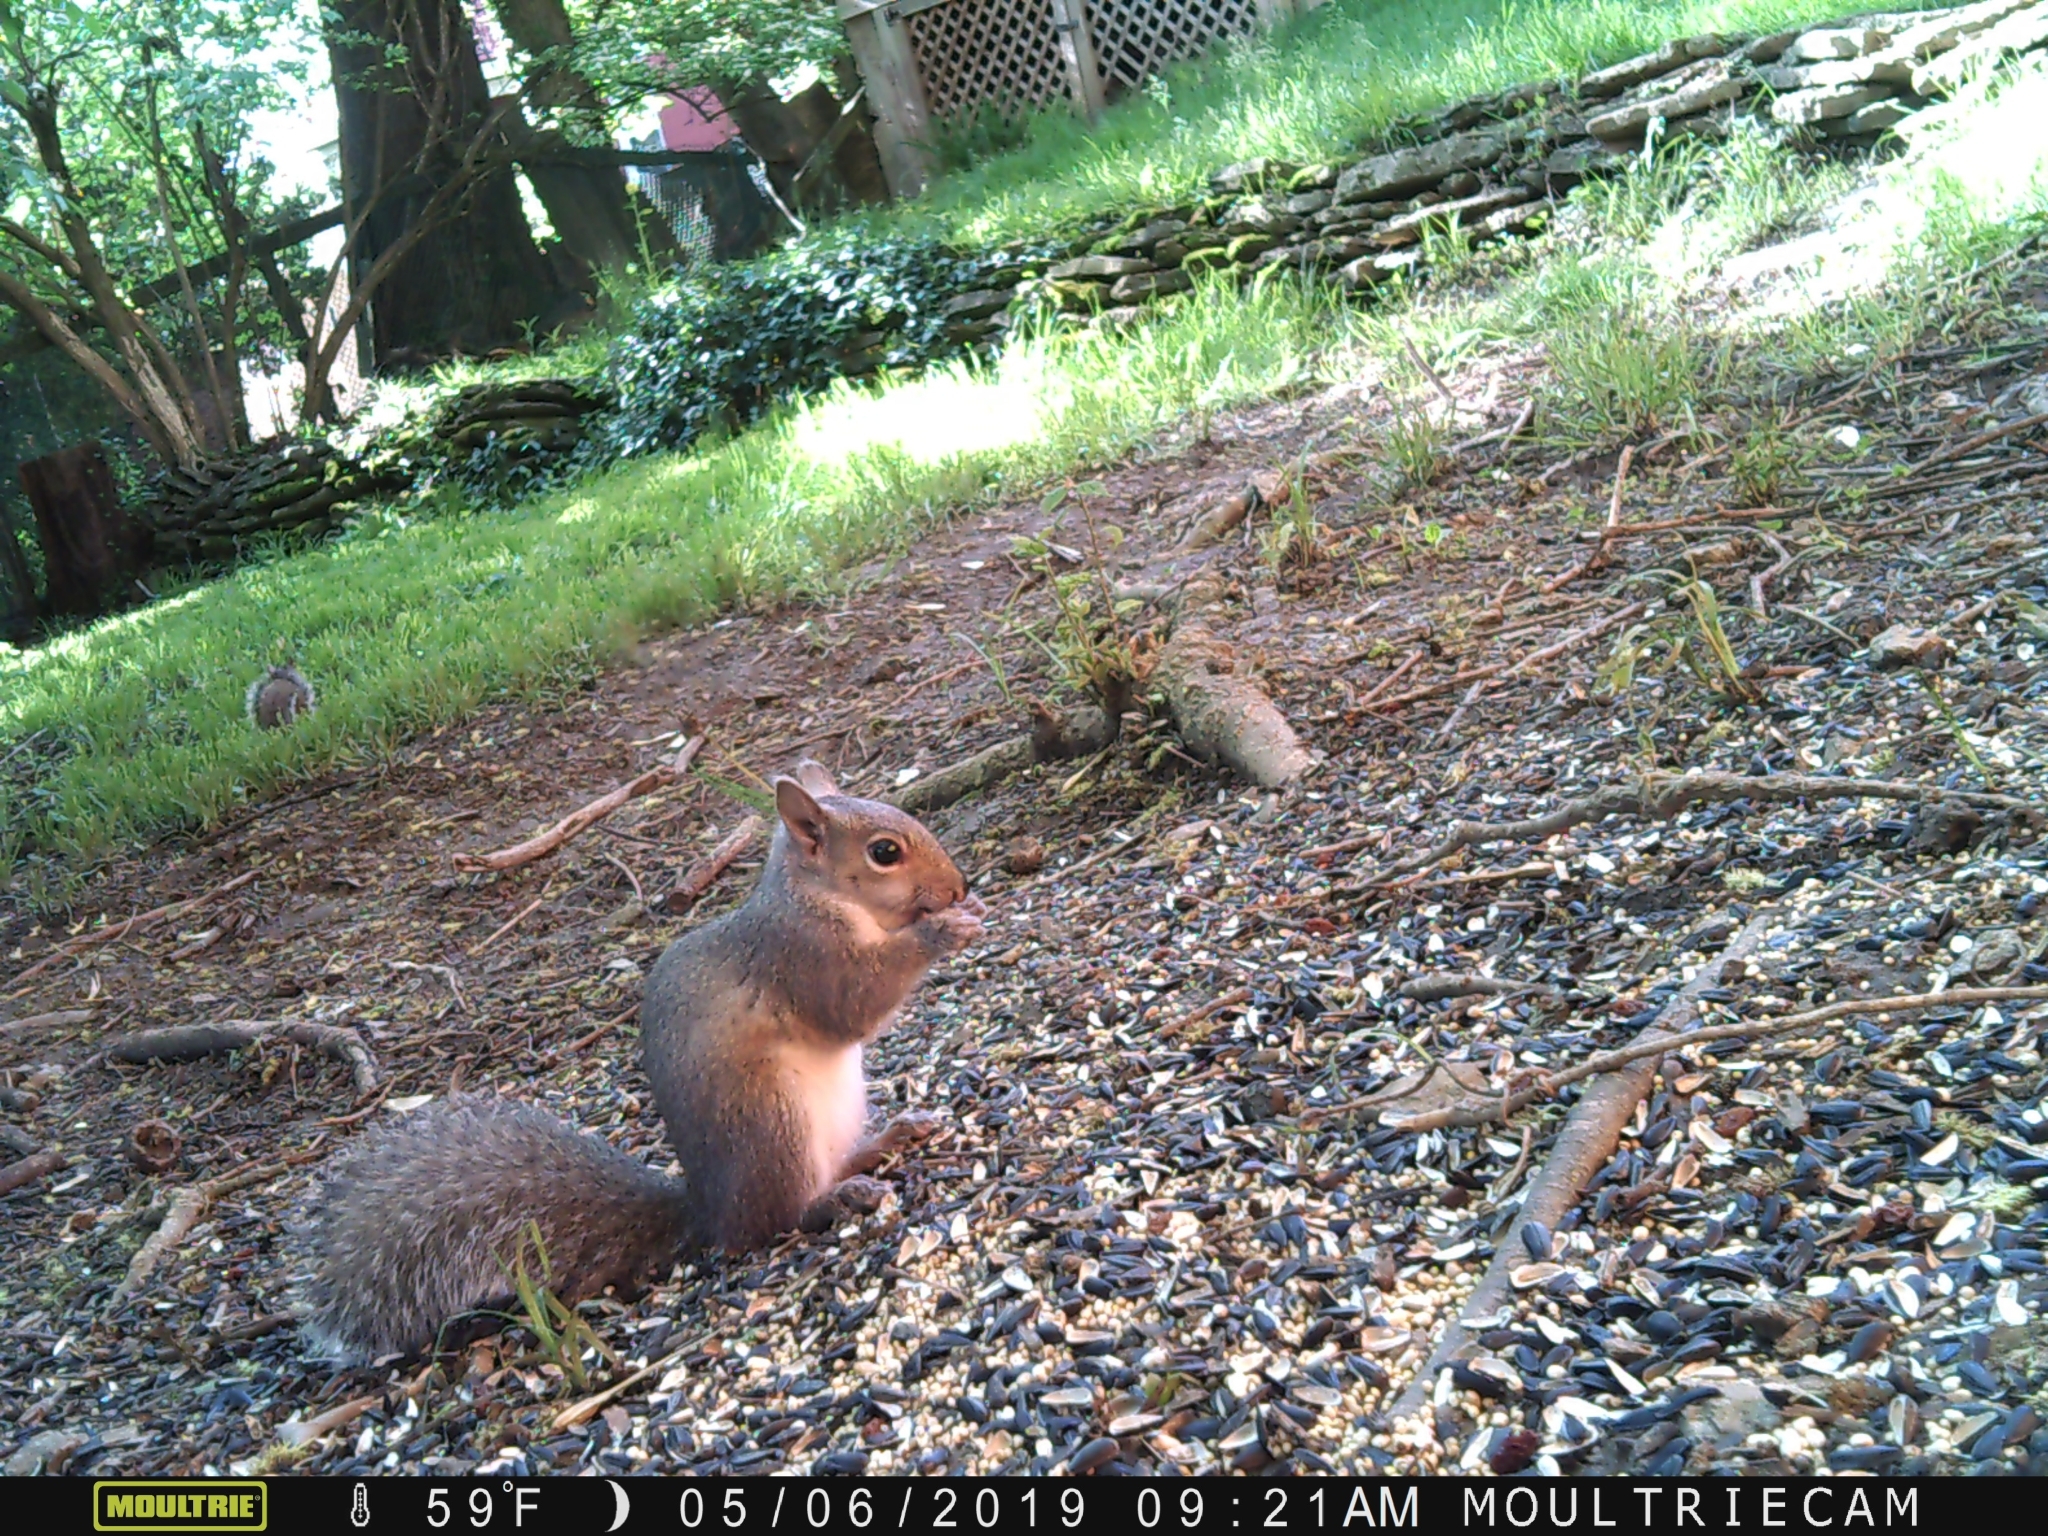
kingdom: Animalia
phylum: Chordata
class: Mammalia
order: Rodentia
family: Sciuridae
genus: Sciurus
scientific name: Sciurus carolinensis
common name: Eastern gray squirrel
